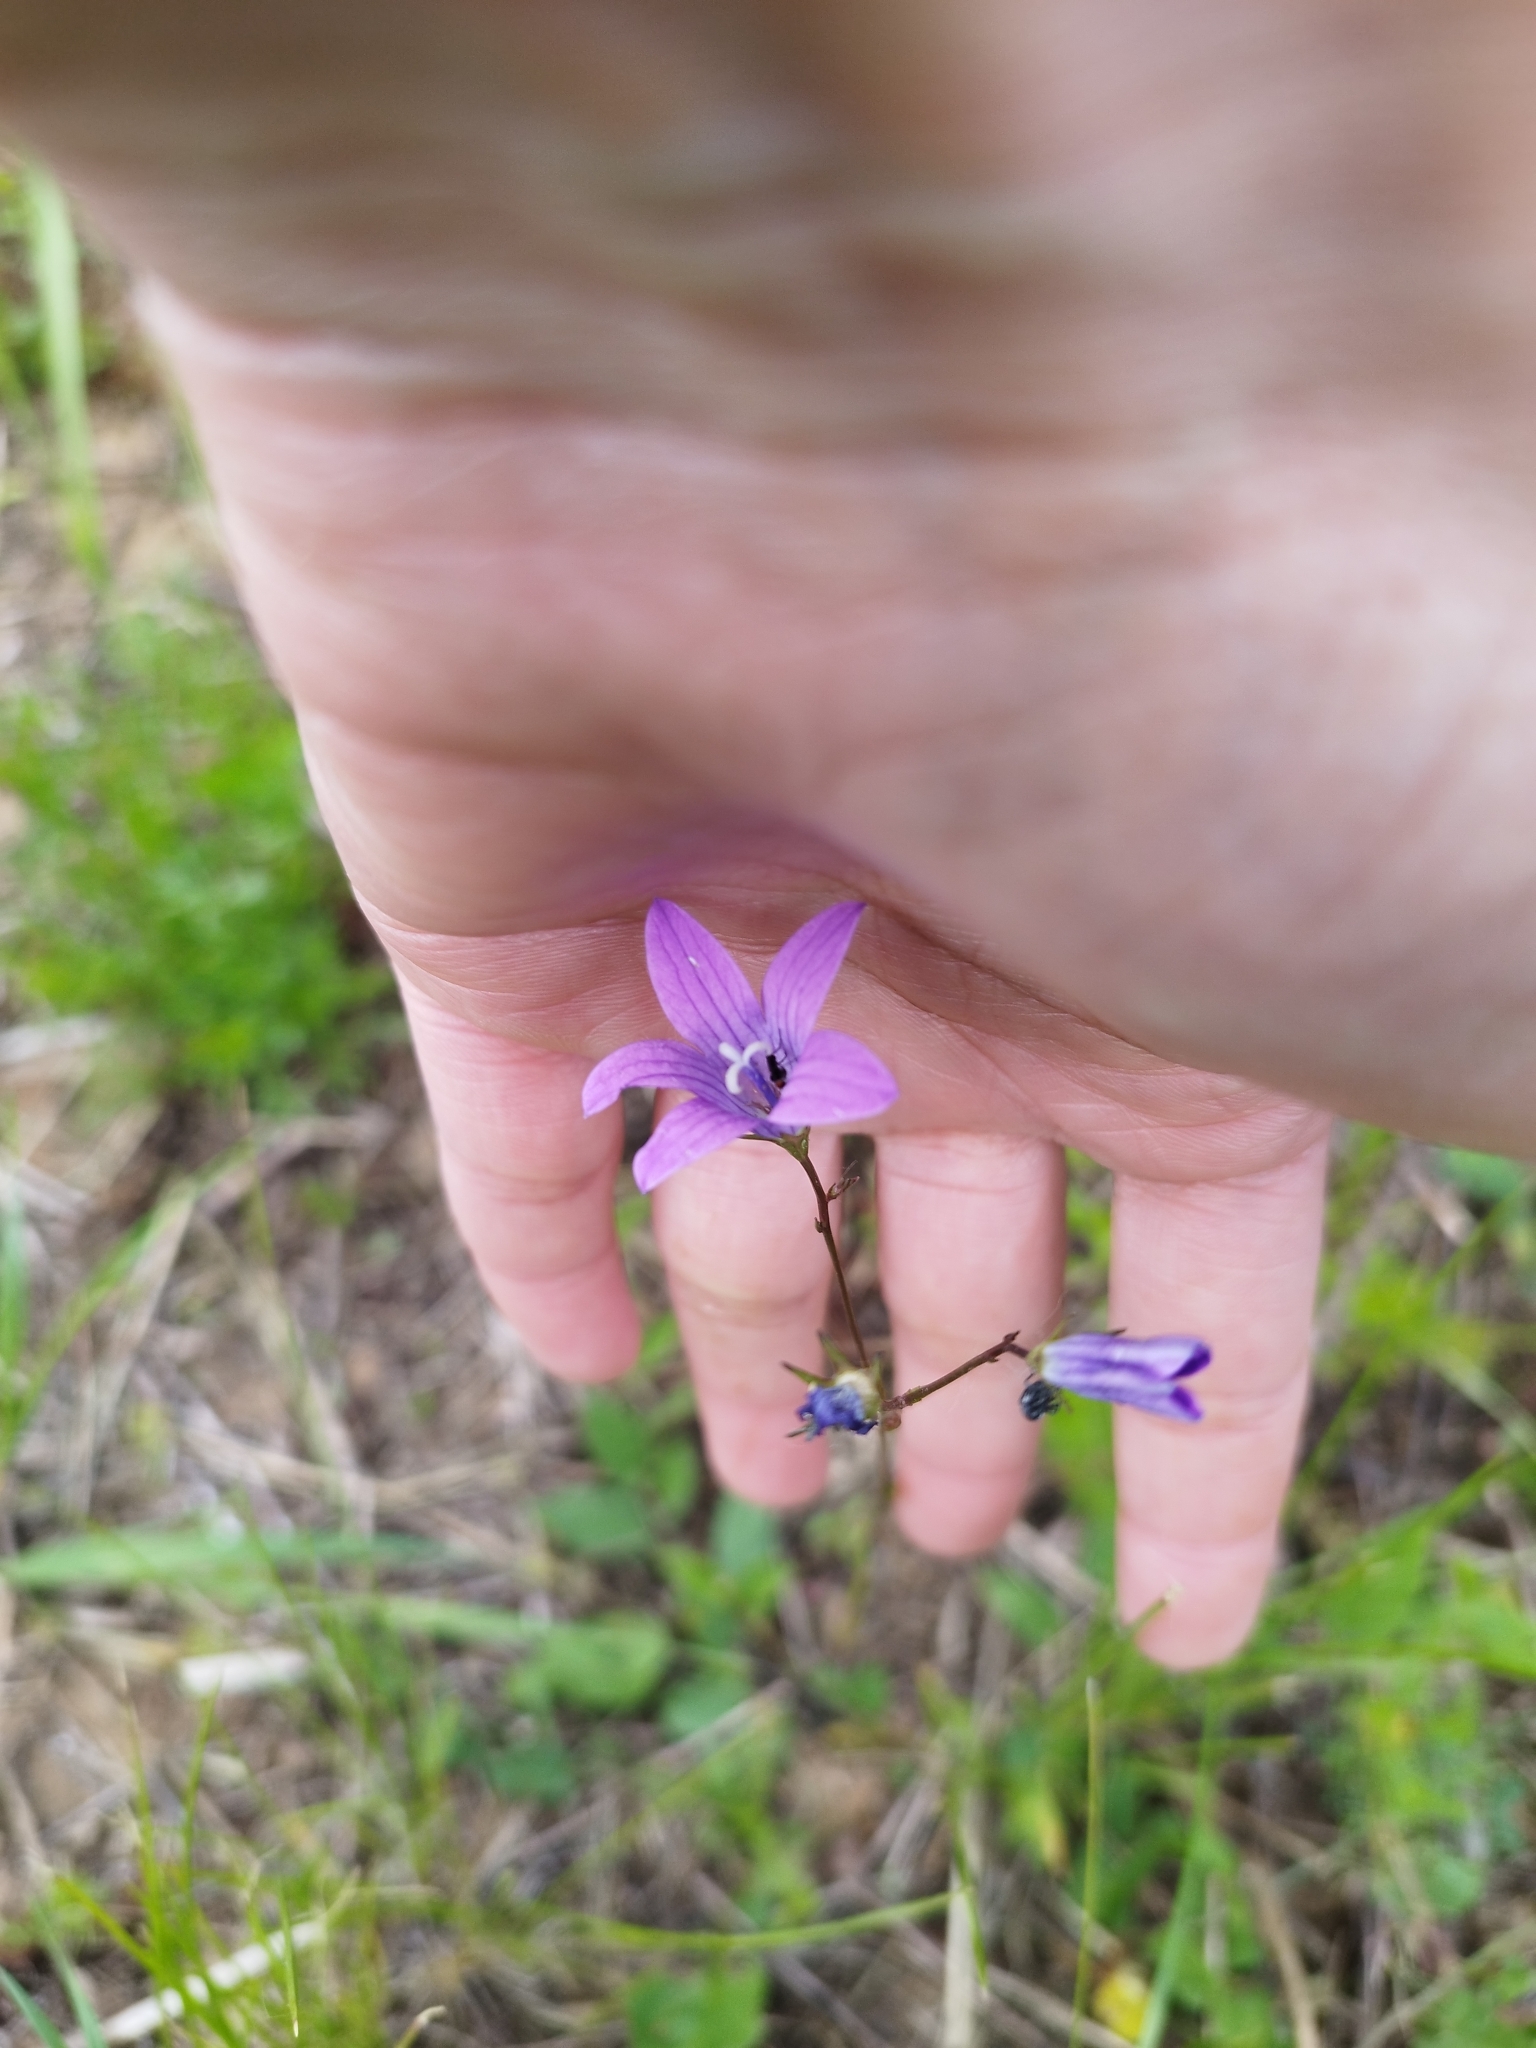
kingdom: Plantae
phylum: Tracheophyta
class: Magnoliopsida
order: Asterales
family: Campanulaceae
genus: Campanula
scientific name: Campanula patula
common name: Spreading bellflower
